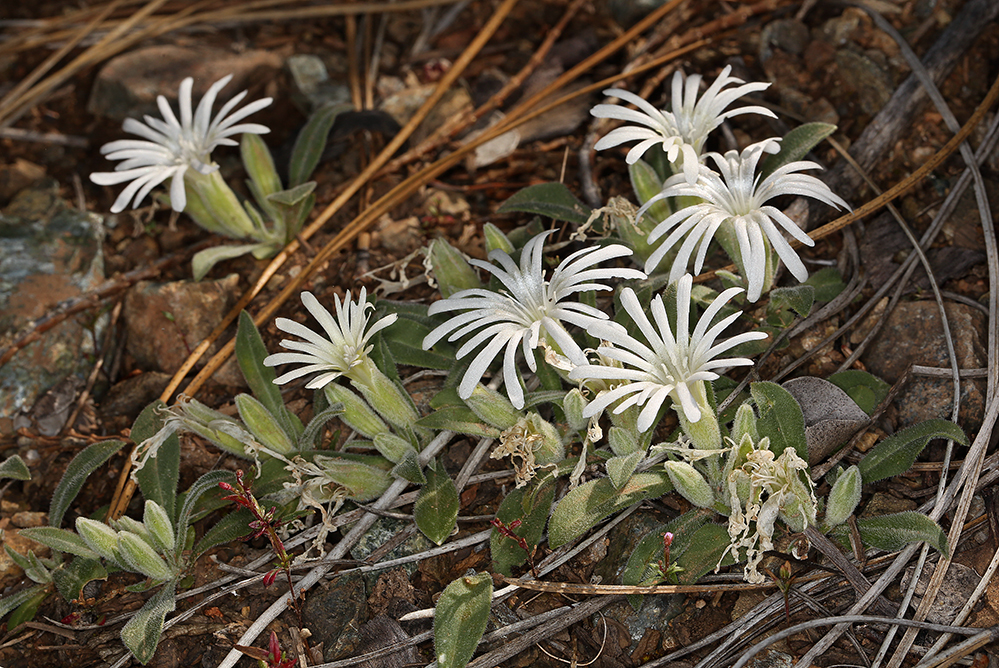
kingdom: Plantae
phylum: Tracheophyta
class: Magnoliopsida
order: Caryophyllales
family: Caryophyllaceae
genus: Silene
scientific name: Silene nelsonii
